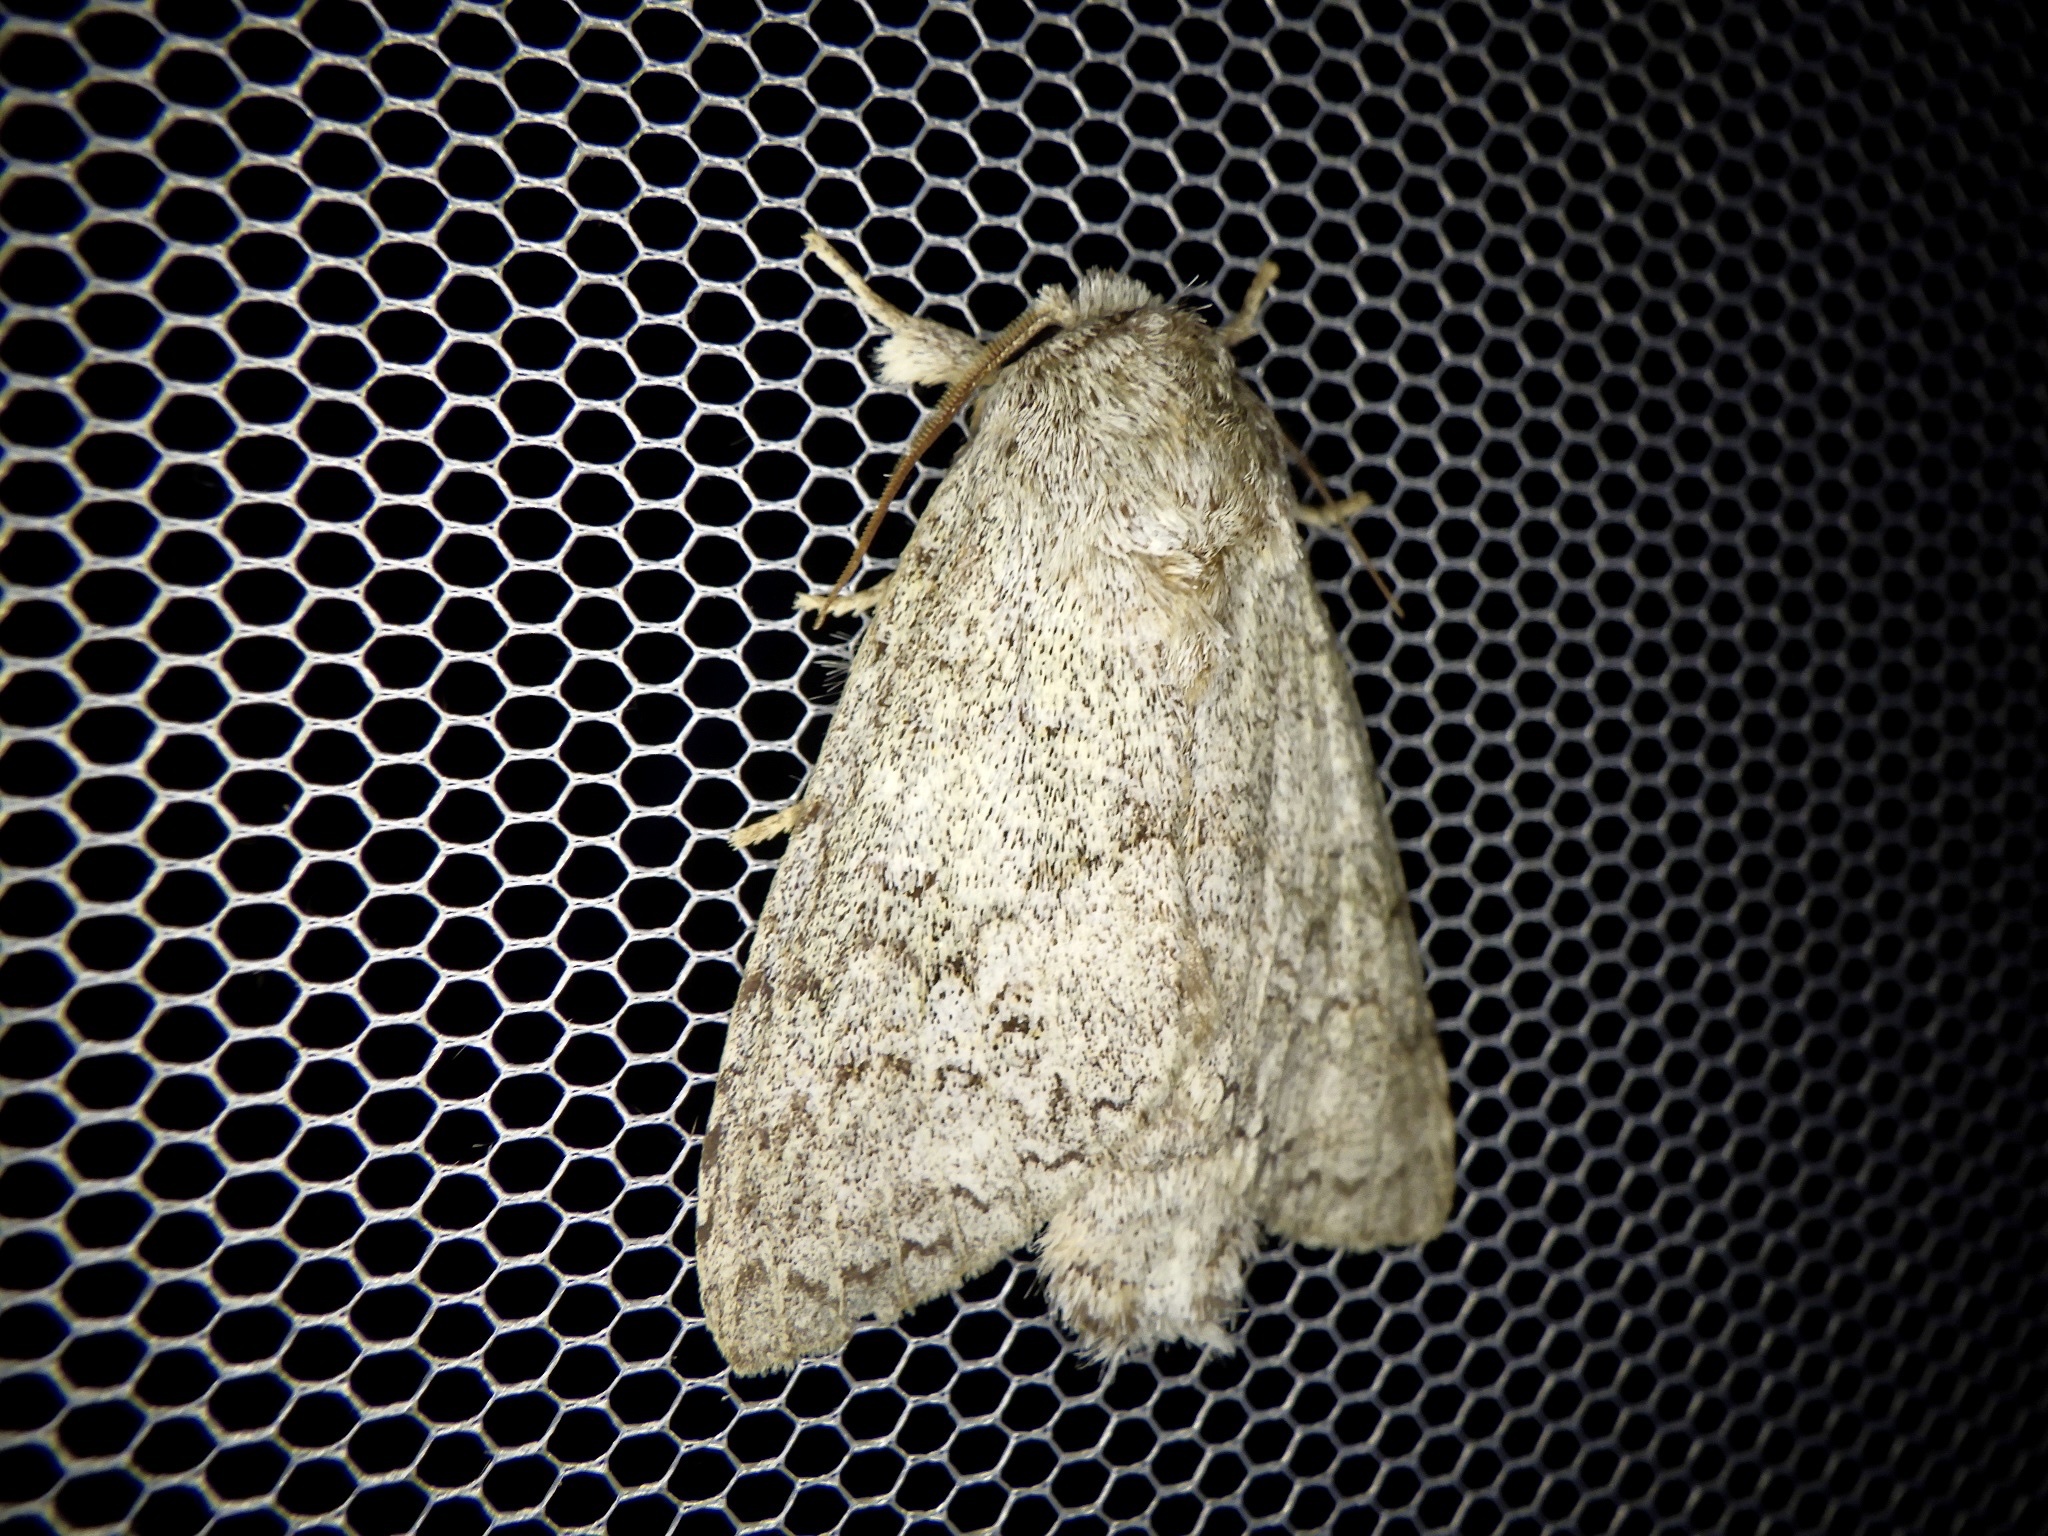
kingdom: Animalia
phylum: Arthropoda
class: Insecta
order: Lepidoptera
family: Notodontidae
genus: Mesophalera
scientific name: Mesophalera sigmata
